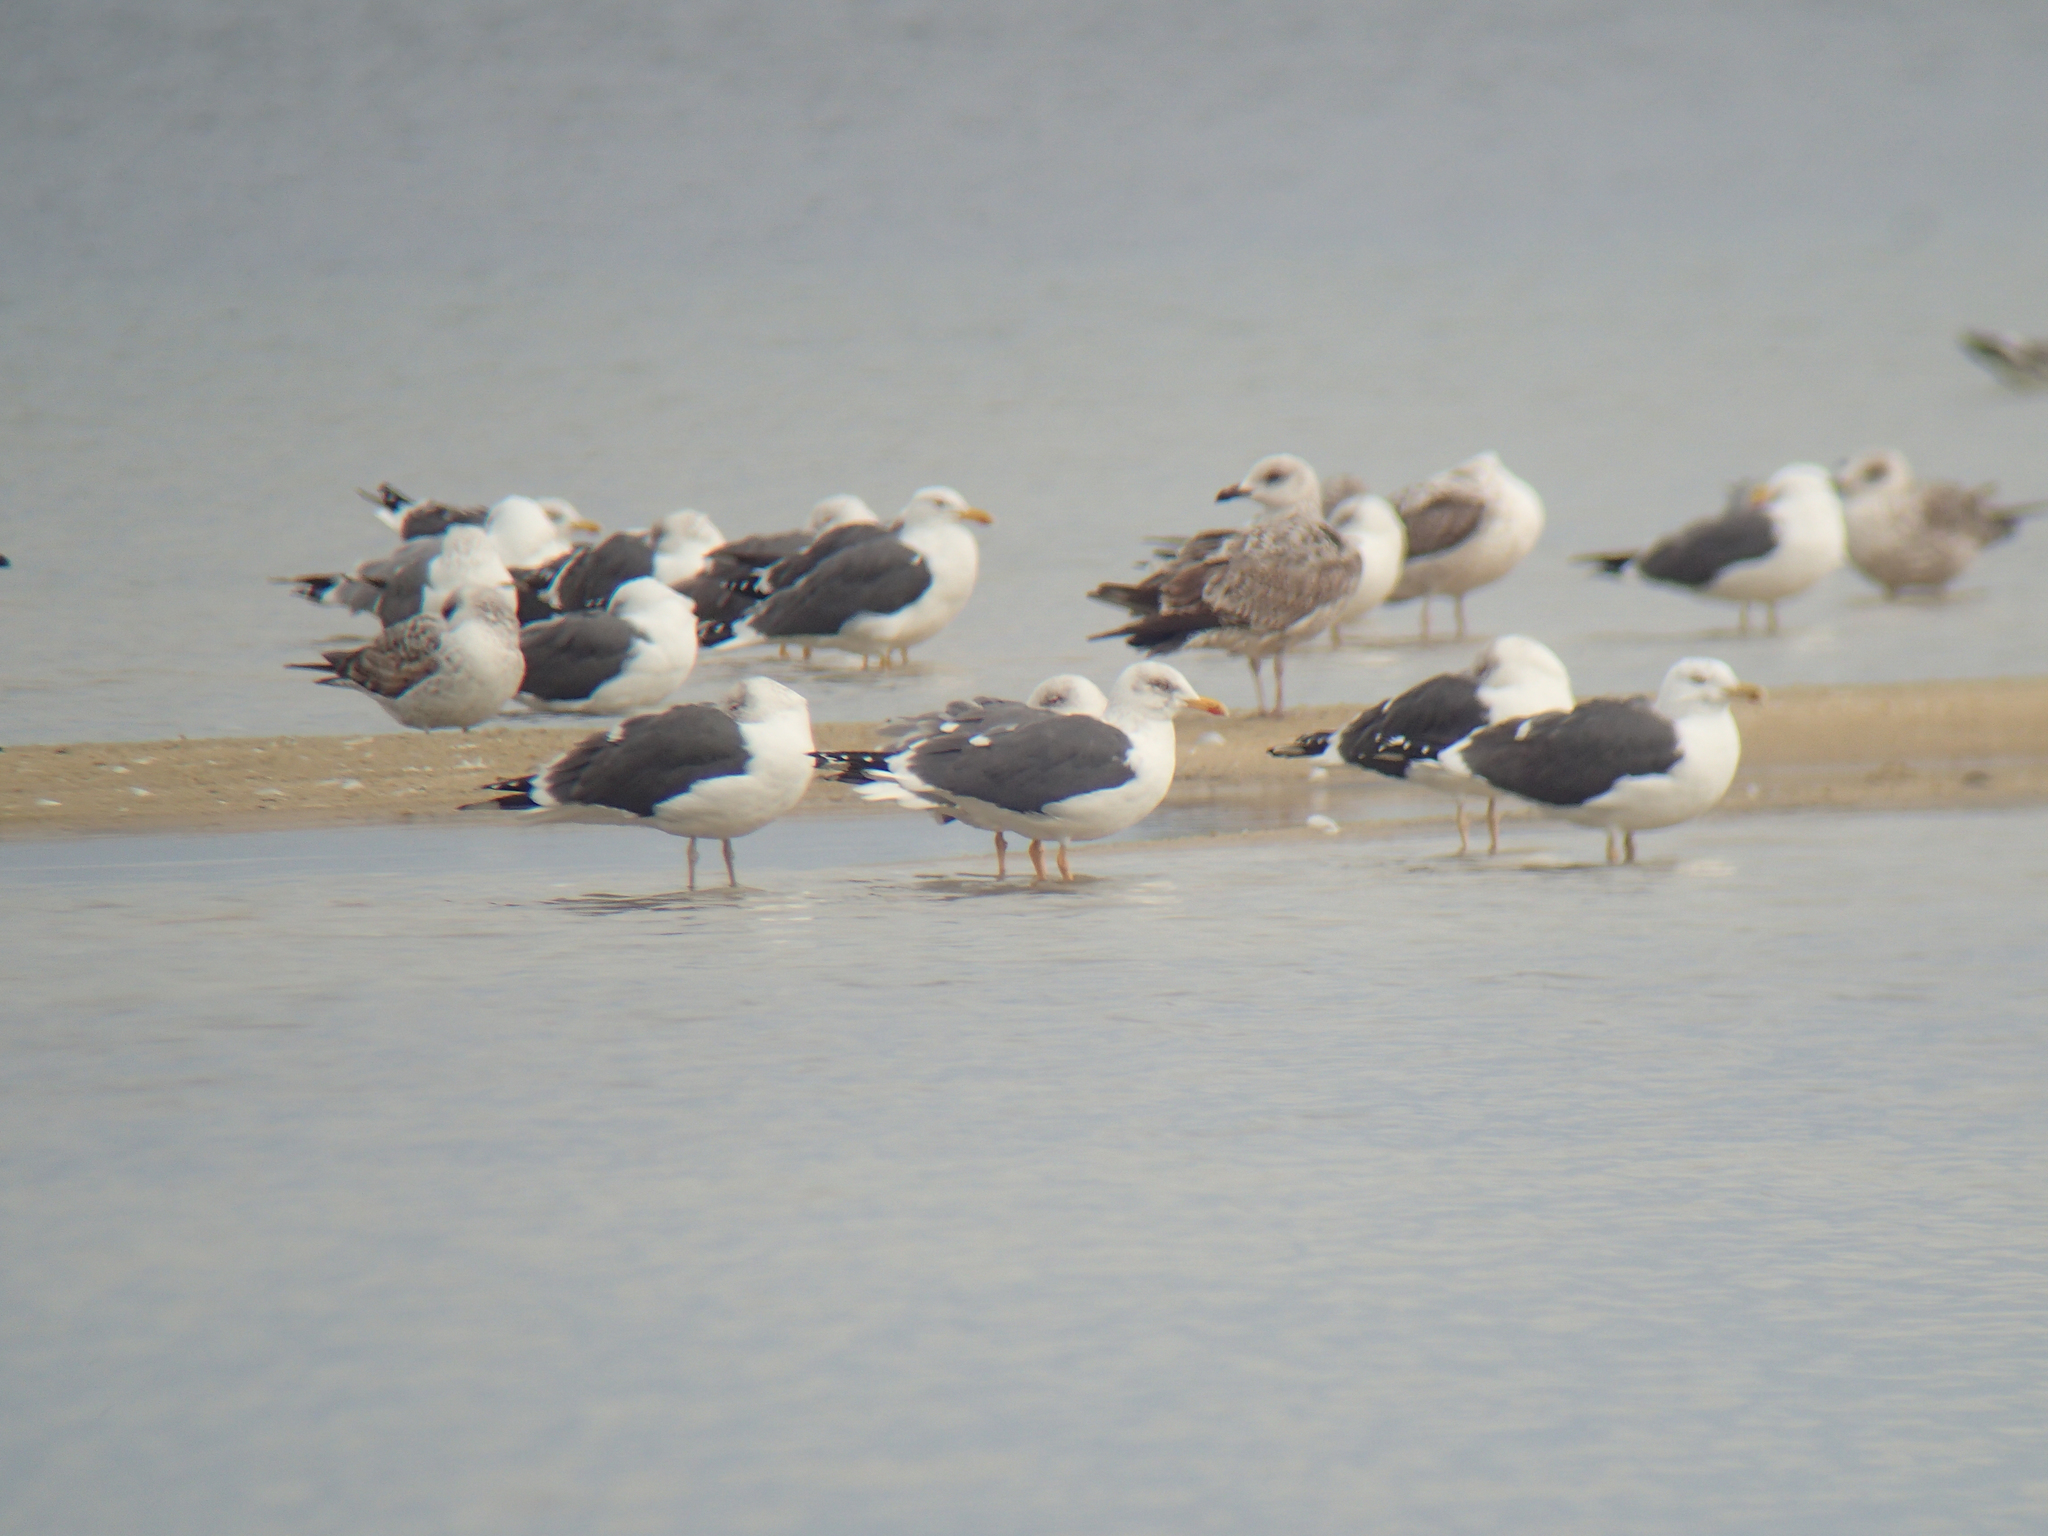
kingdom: Animalia
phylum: Chordata
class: Aves
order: Charadriiformes
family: Laridae
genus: Larus
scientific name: Larus fuscus
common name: Lesser black-backed gull
